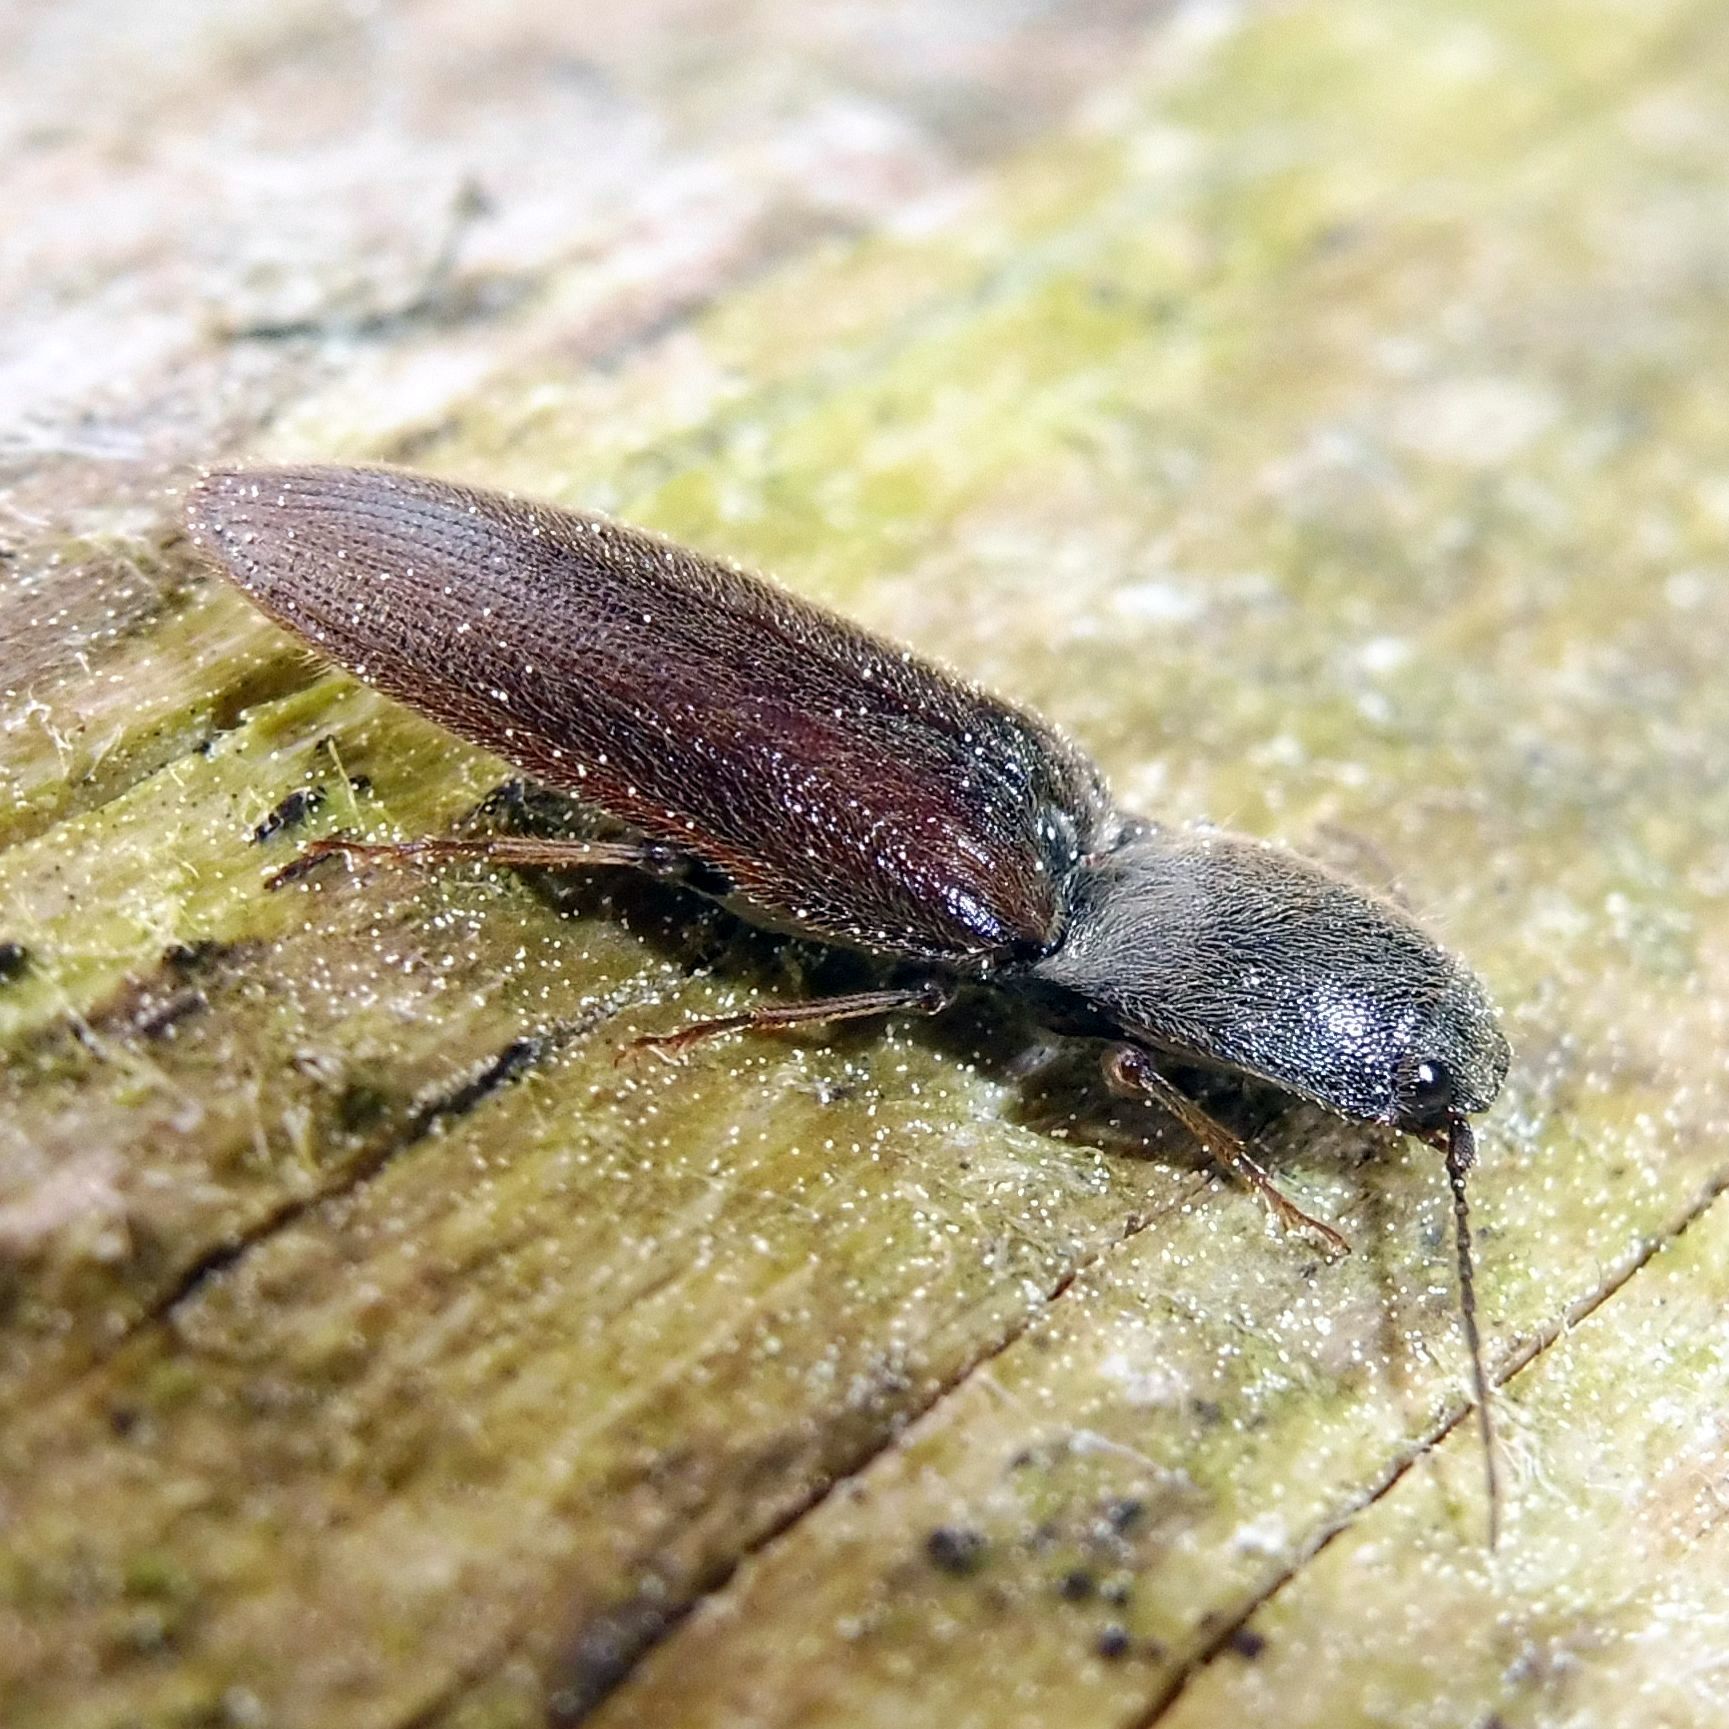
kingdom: Animalia
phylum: Arthropoda
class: Insecta
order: Coleoptera
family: Elateridae
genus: Athous
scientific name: Athous haemorrhoidalis
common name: Red-brown click beetle
